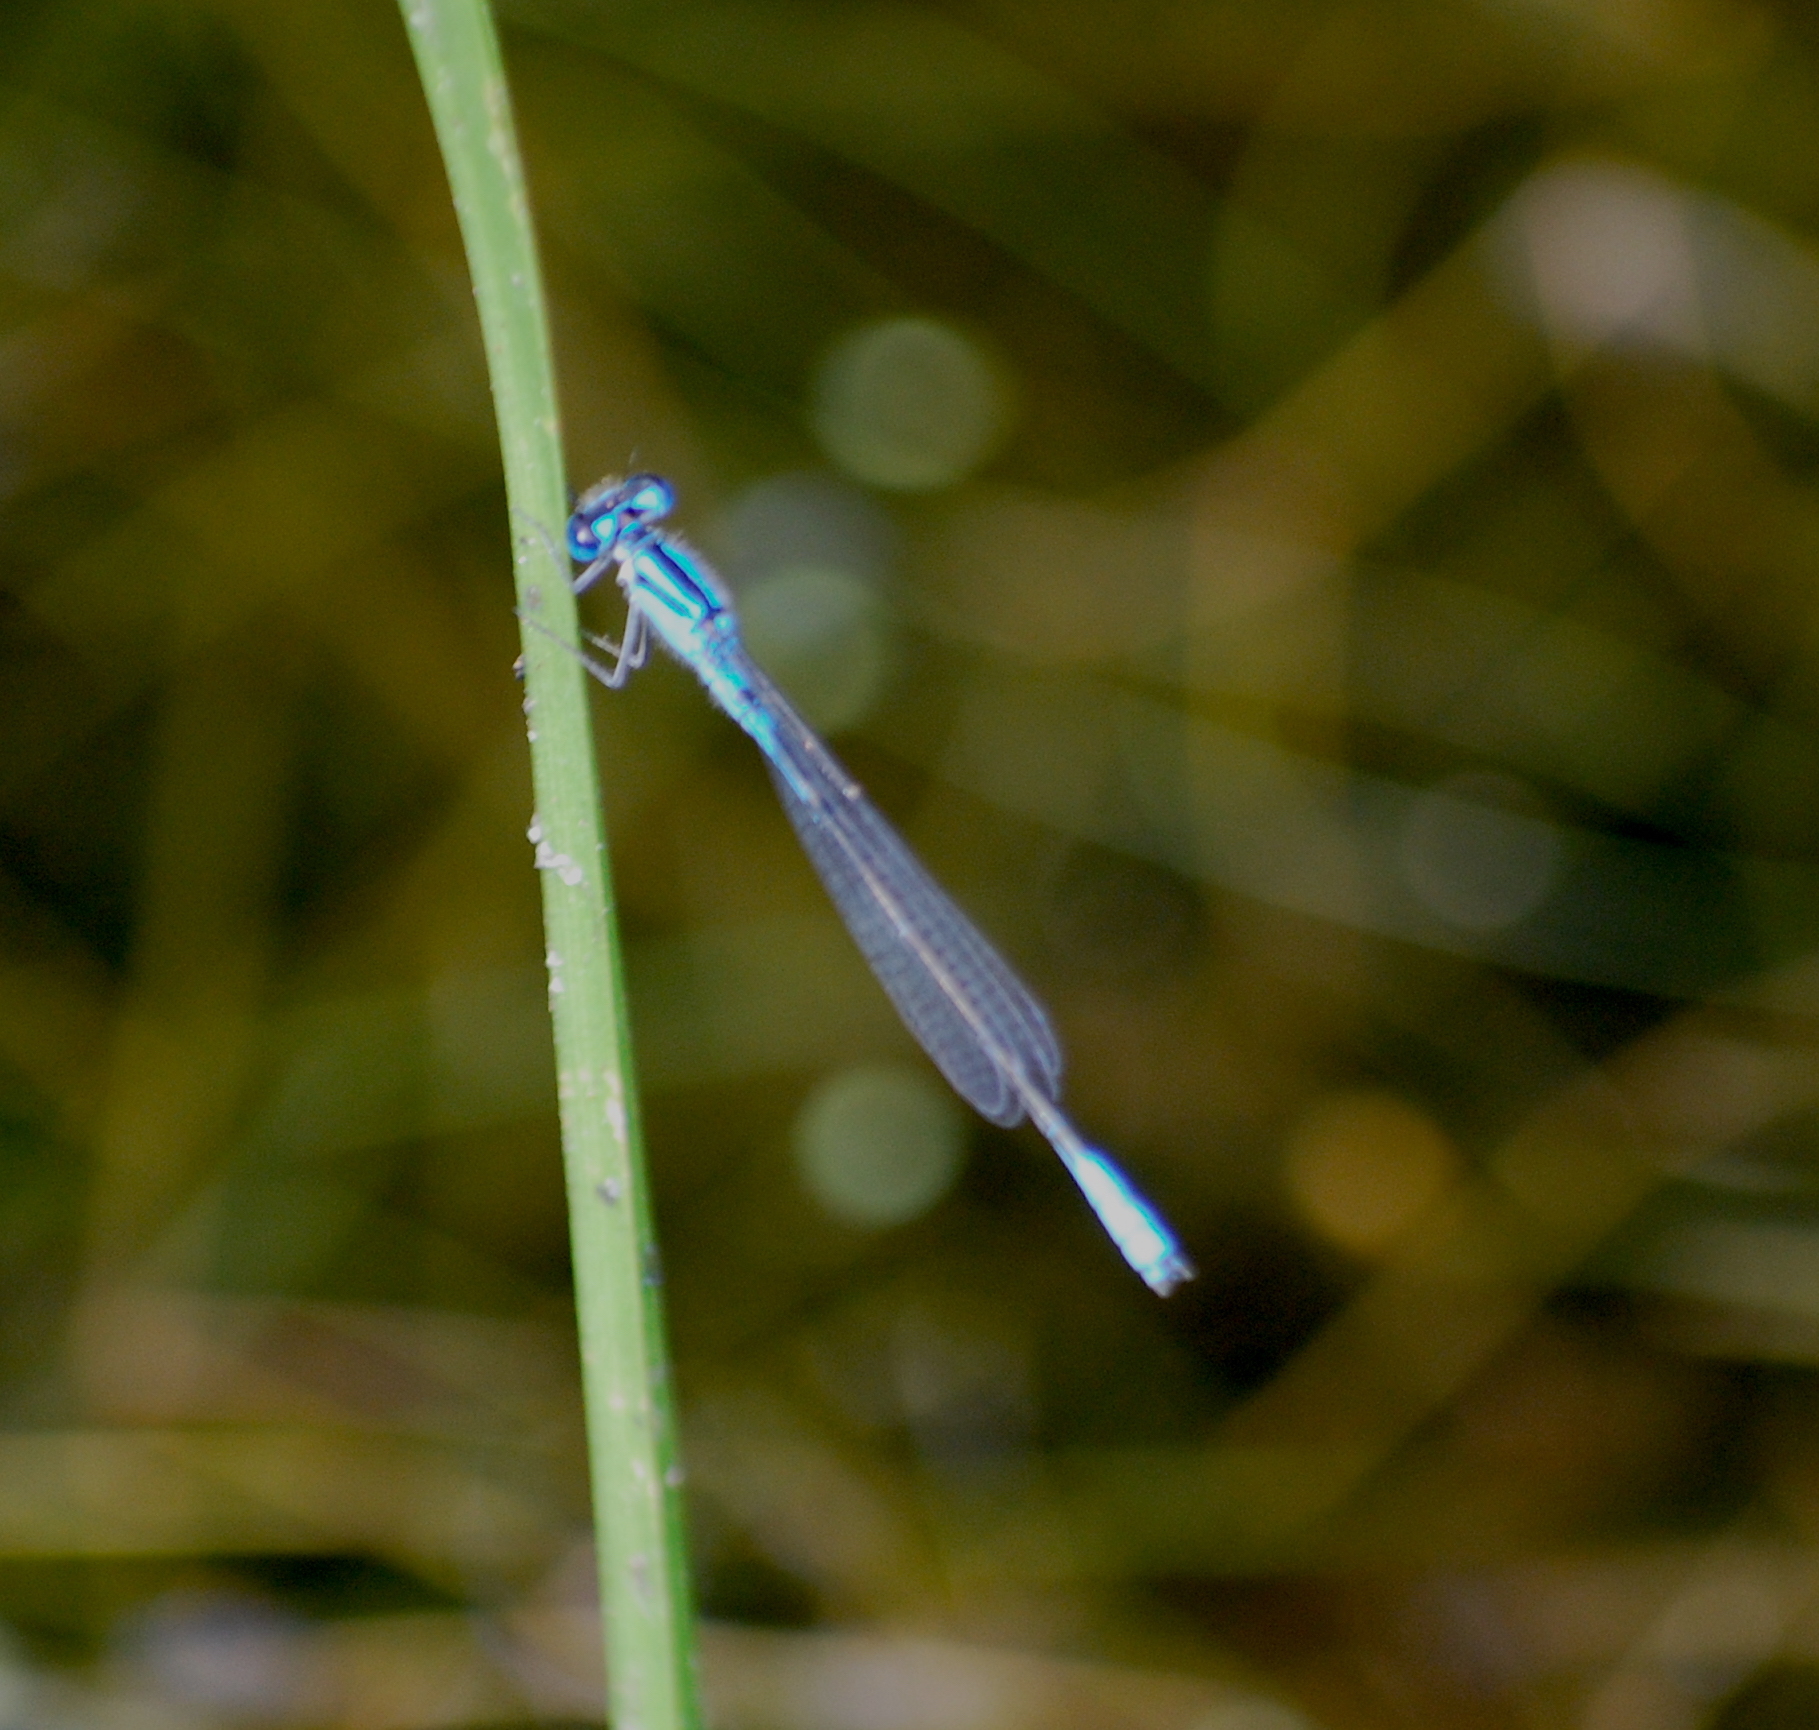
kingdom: Plantae
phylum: Tracheophyta
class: Magnoliopsida
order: Gentianales
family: Rubiaceae
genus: Houstonia
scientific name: Houstonia caerulea
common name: Bluets
